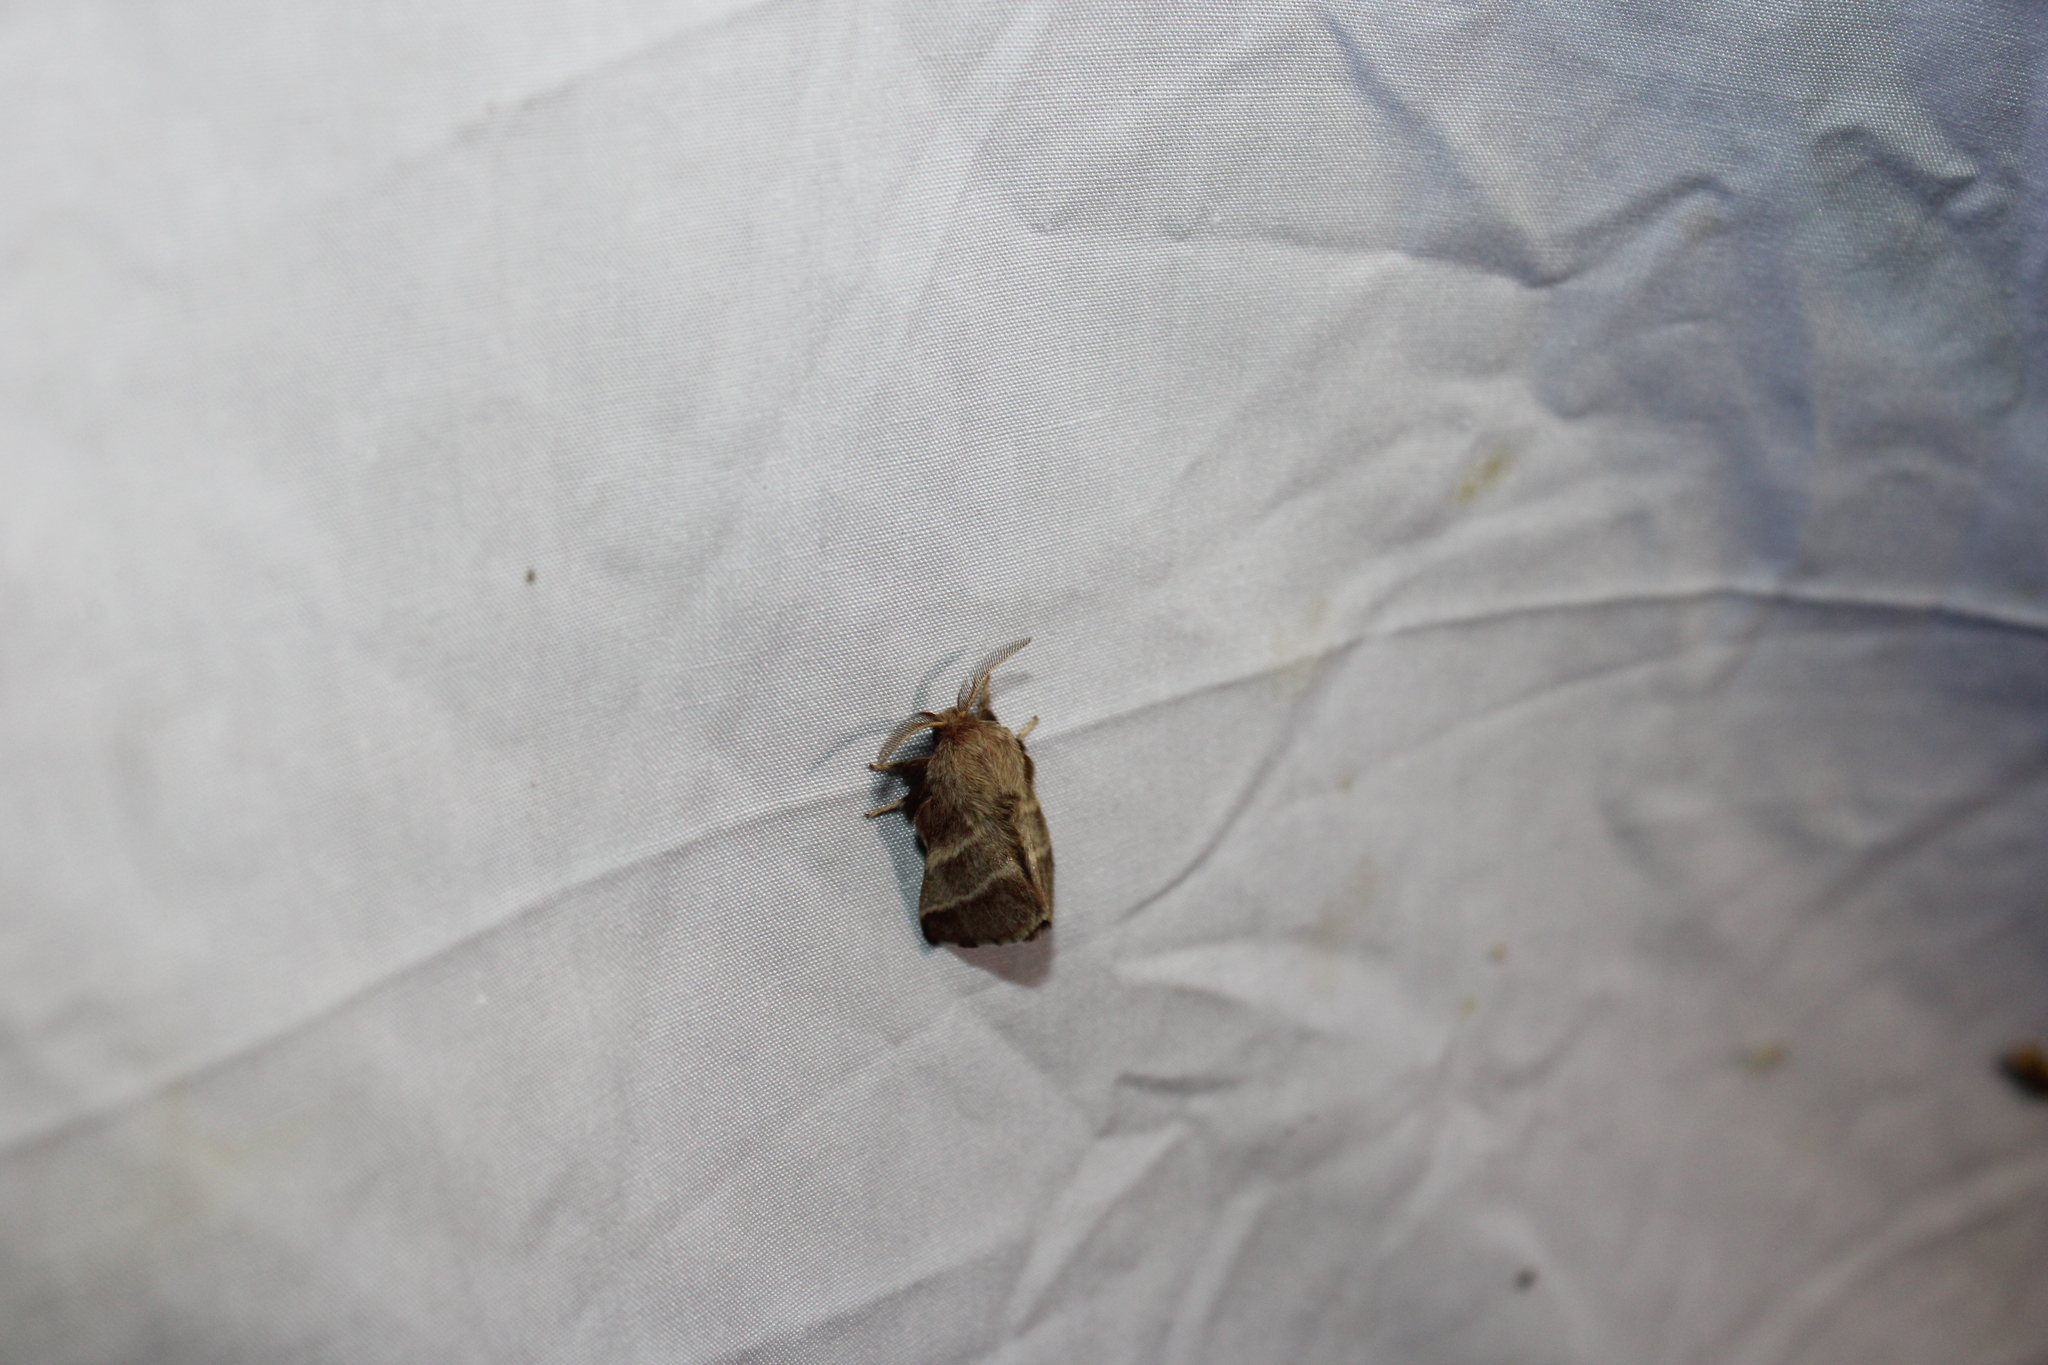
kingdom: Animalia
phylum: Arthropoda
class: Insecta
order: Lepidoptera
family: Lasiocampidae
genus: Malacosoma
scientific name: Malacosoma americana
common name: Eastern tent caterpillar moth
